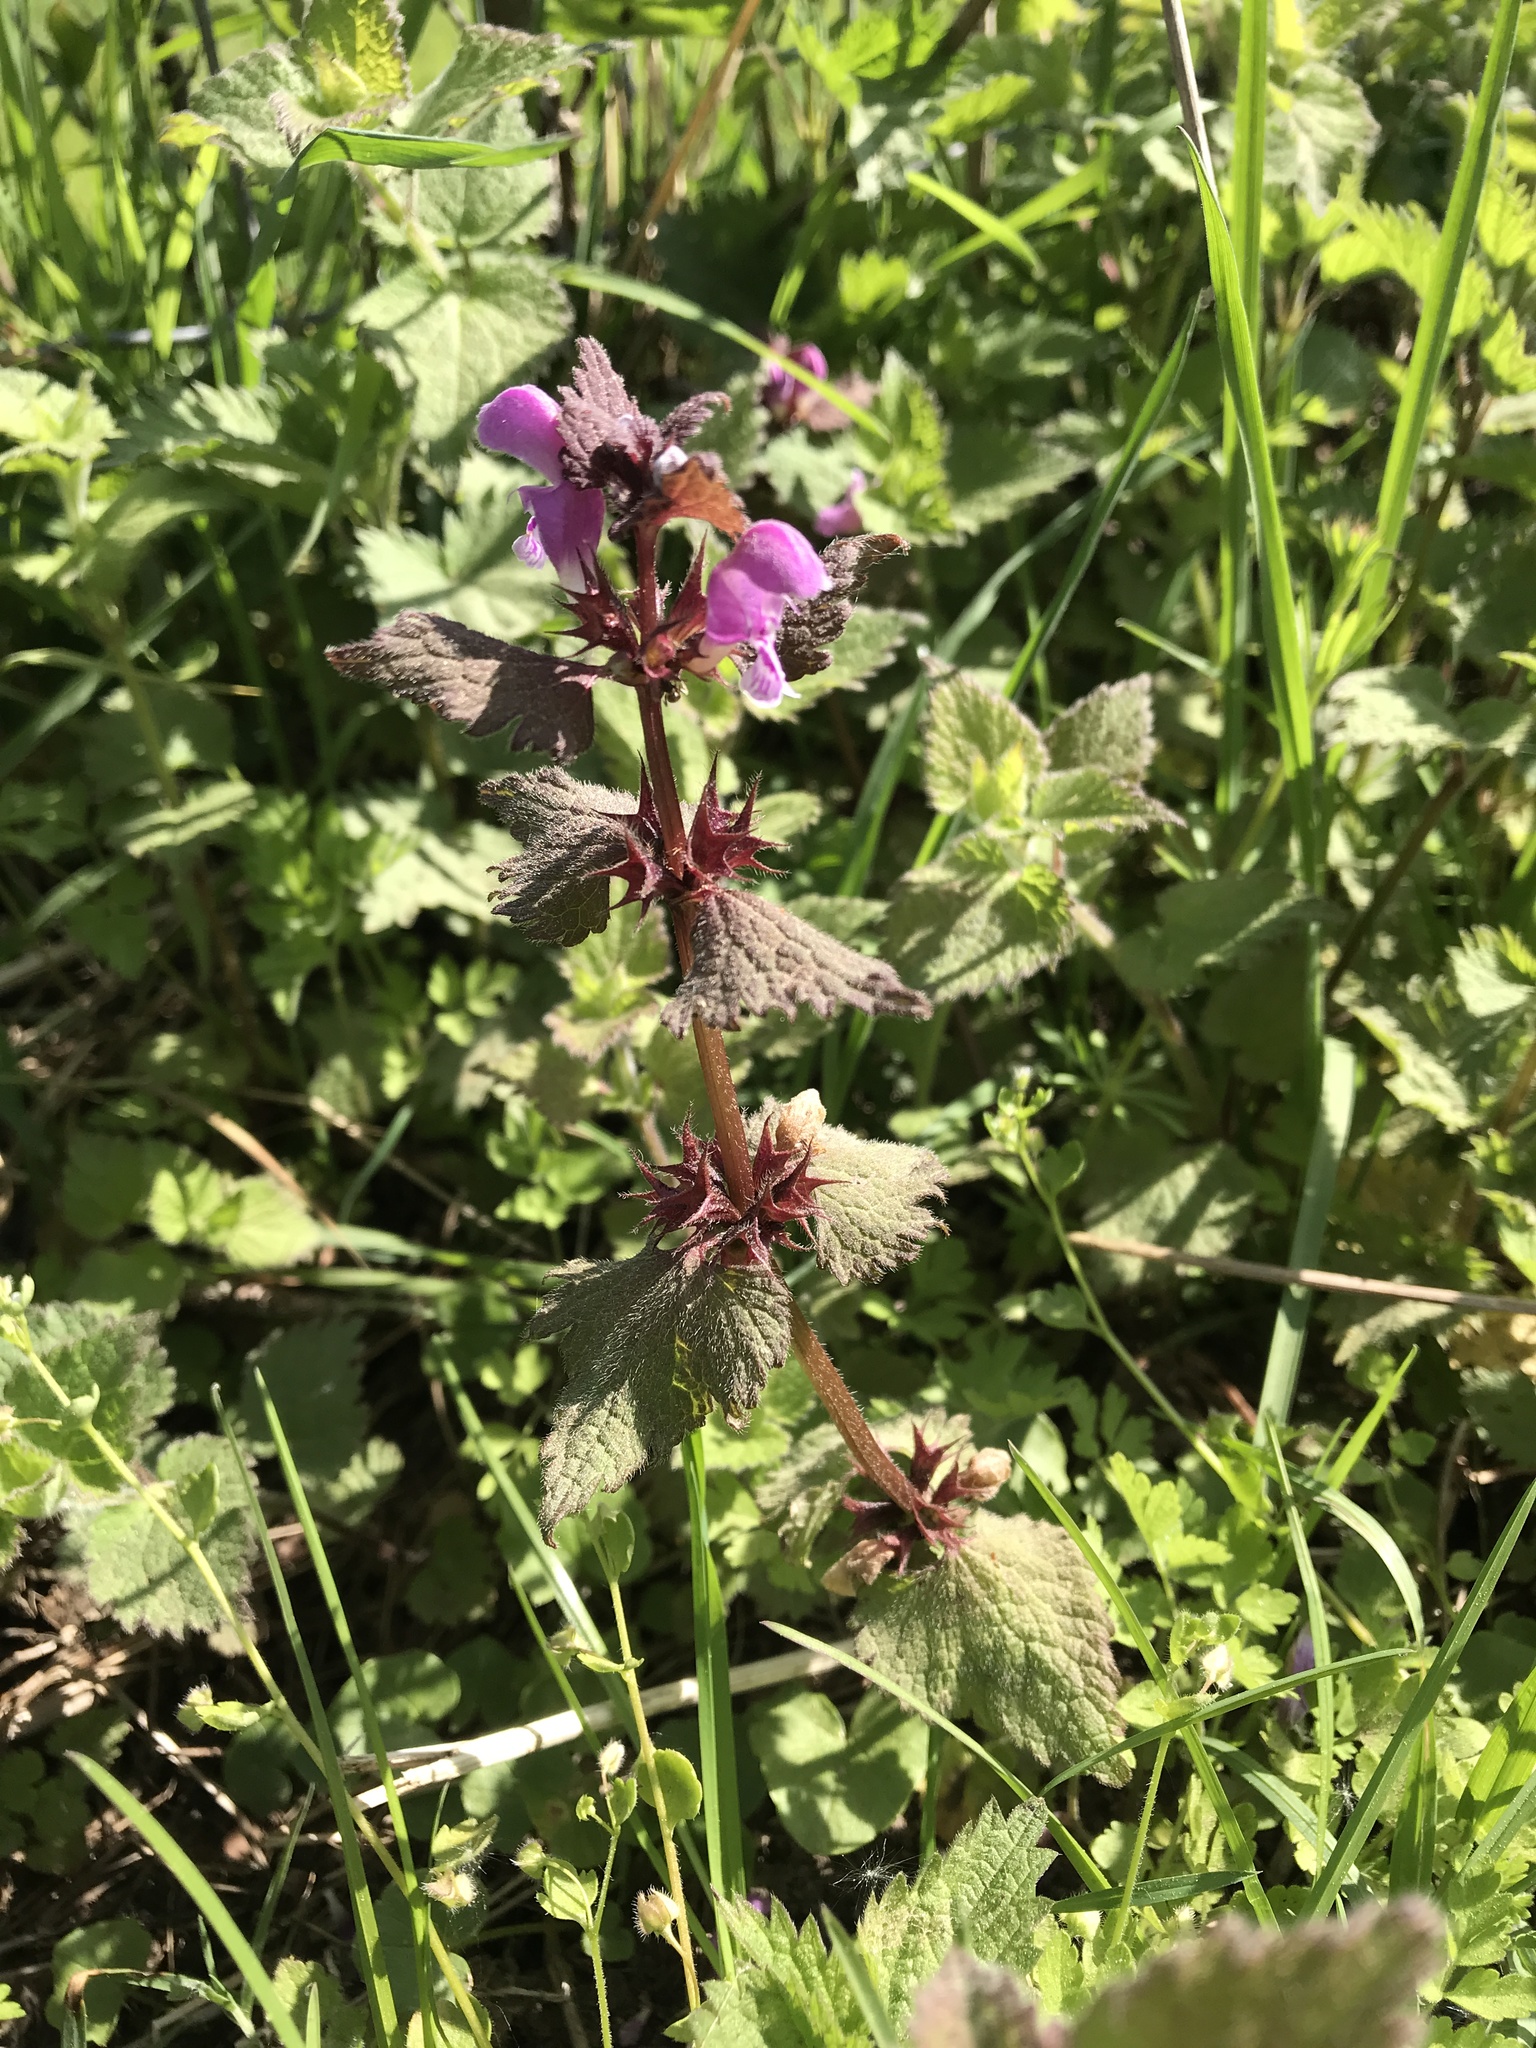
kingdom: Plantae
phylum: Tracheophyta
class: Magnoliopsida
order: Lamiales
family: Lamiaceae
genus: Lamium
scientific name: Lamium purpureum
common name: Red dead-nettle
